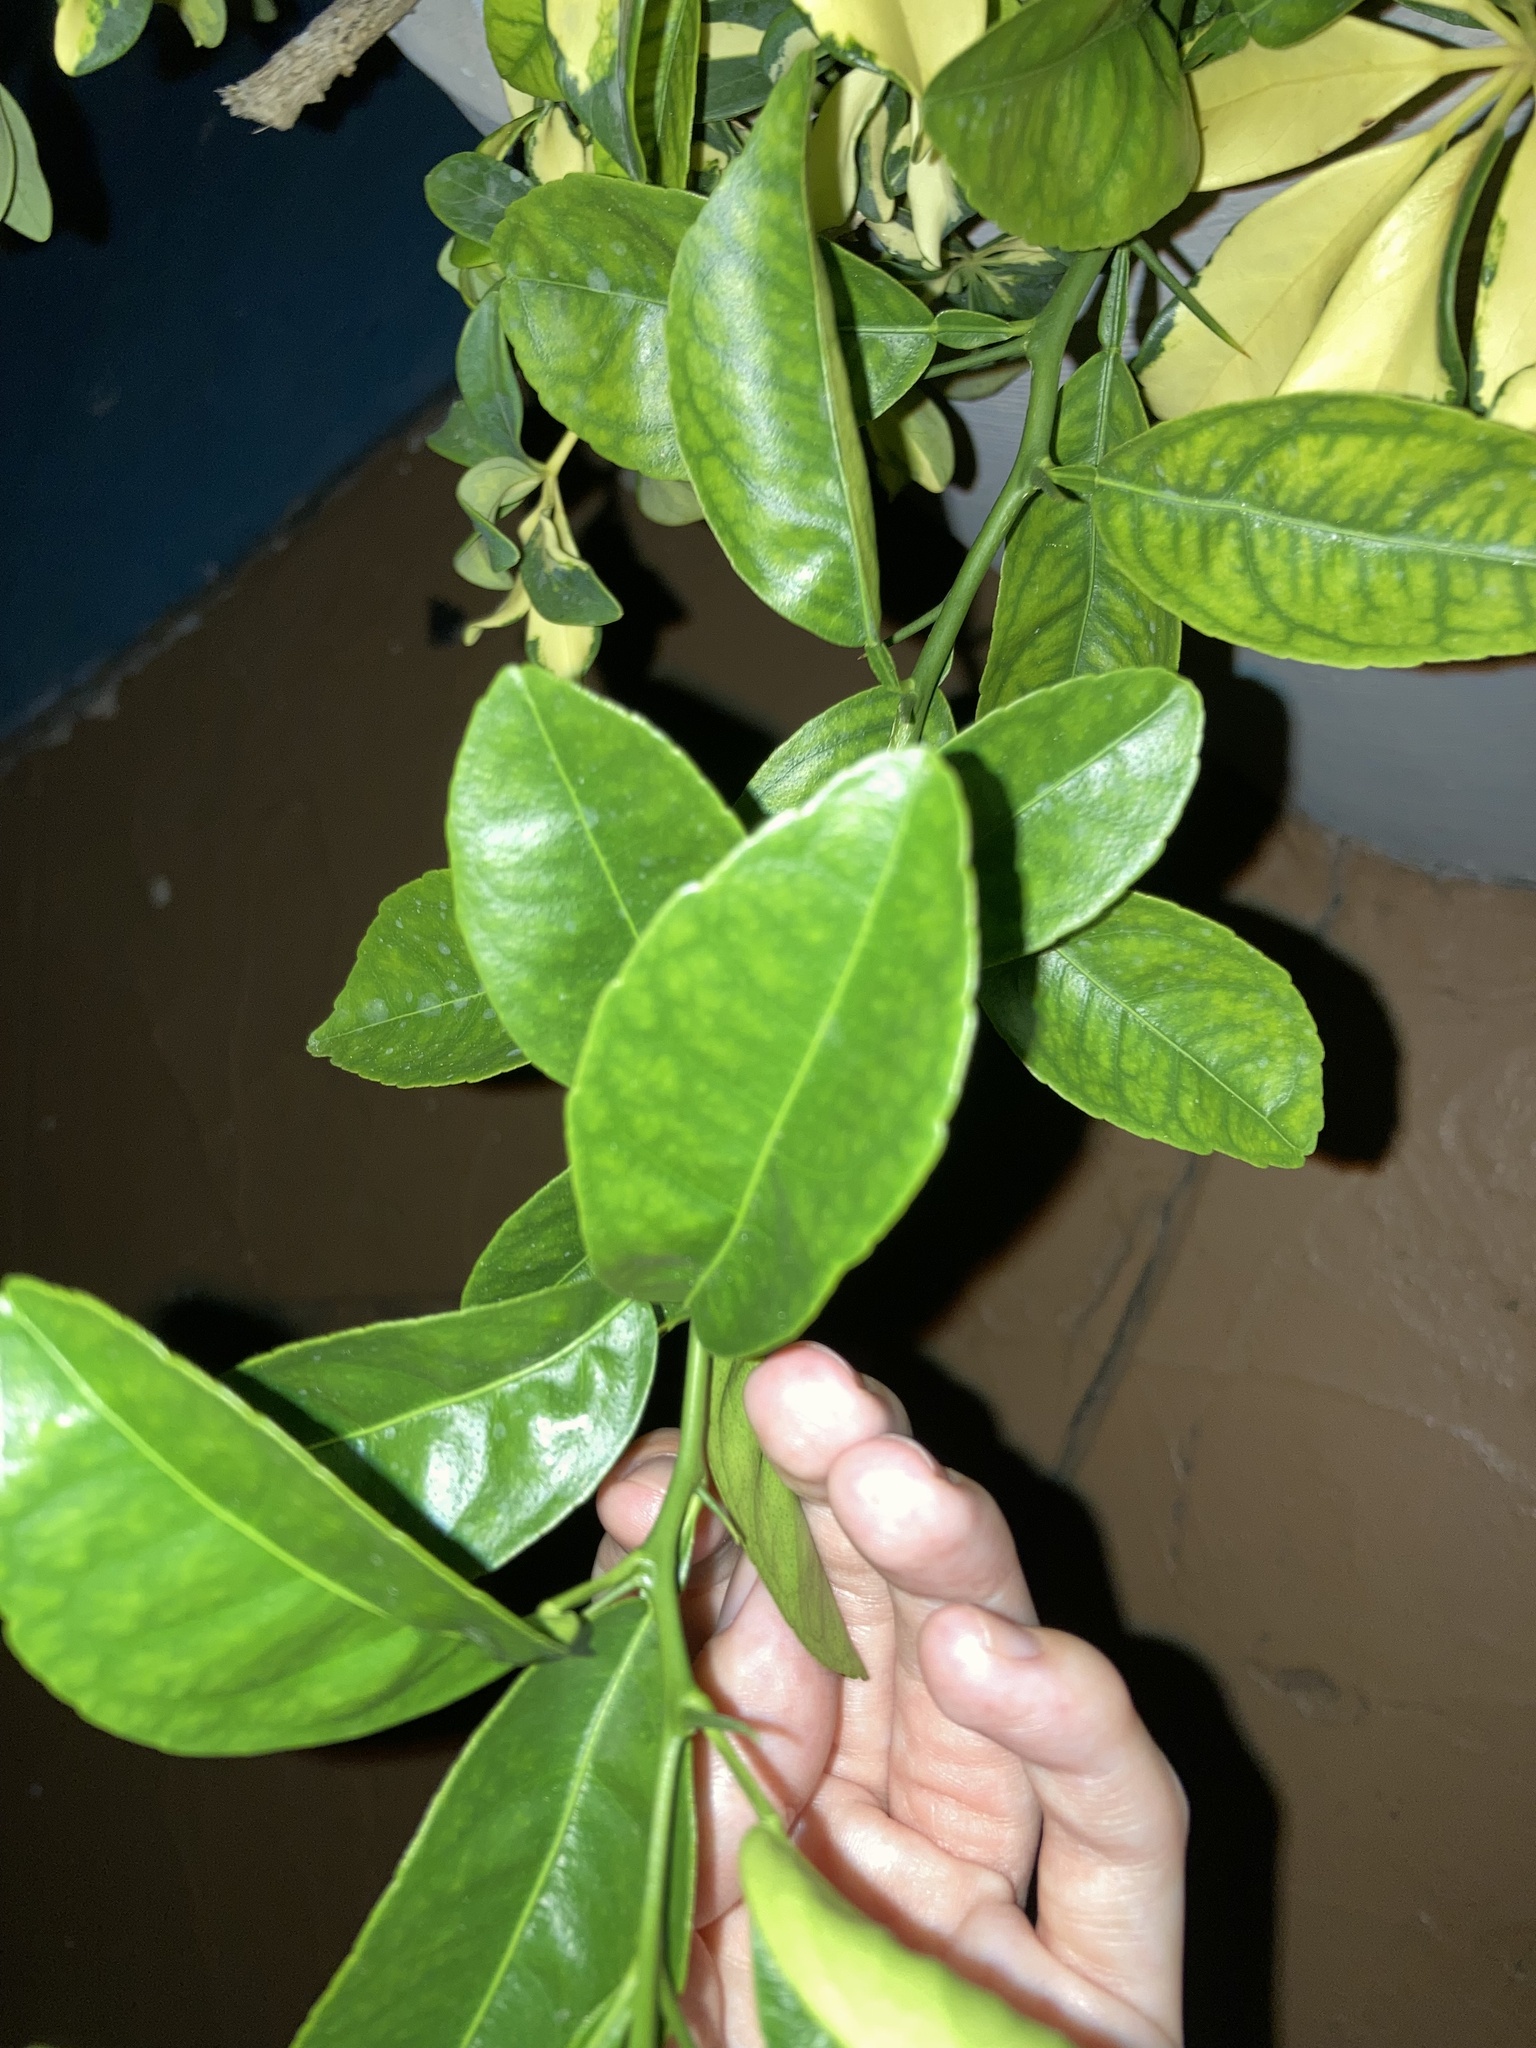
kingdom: Plantae
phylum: Tracheophyta
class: Magnoliopsida
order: Sapindales
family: Rutaceae
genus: Citrus
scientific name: Citrus limon
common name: Lemon
